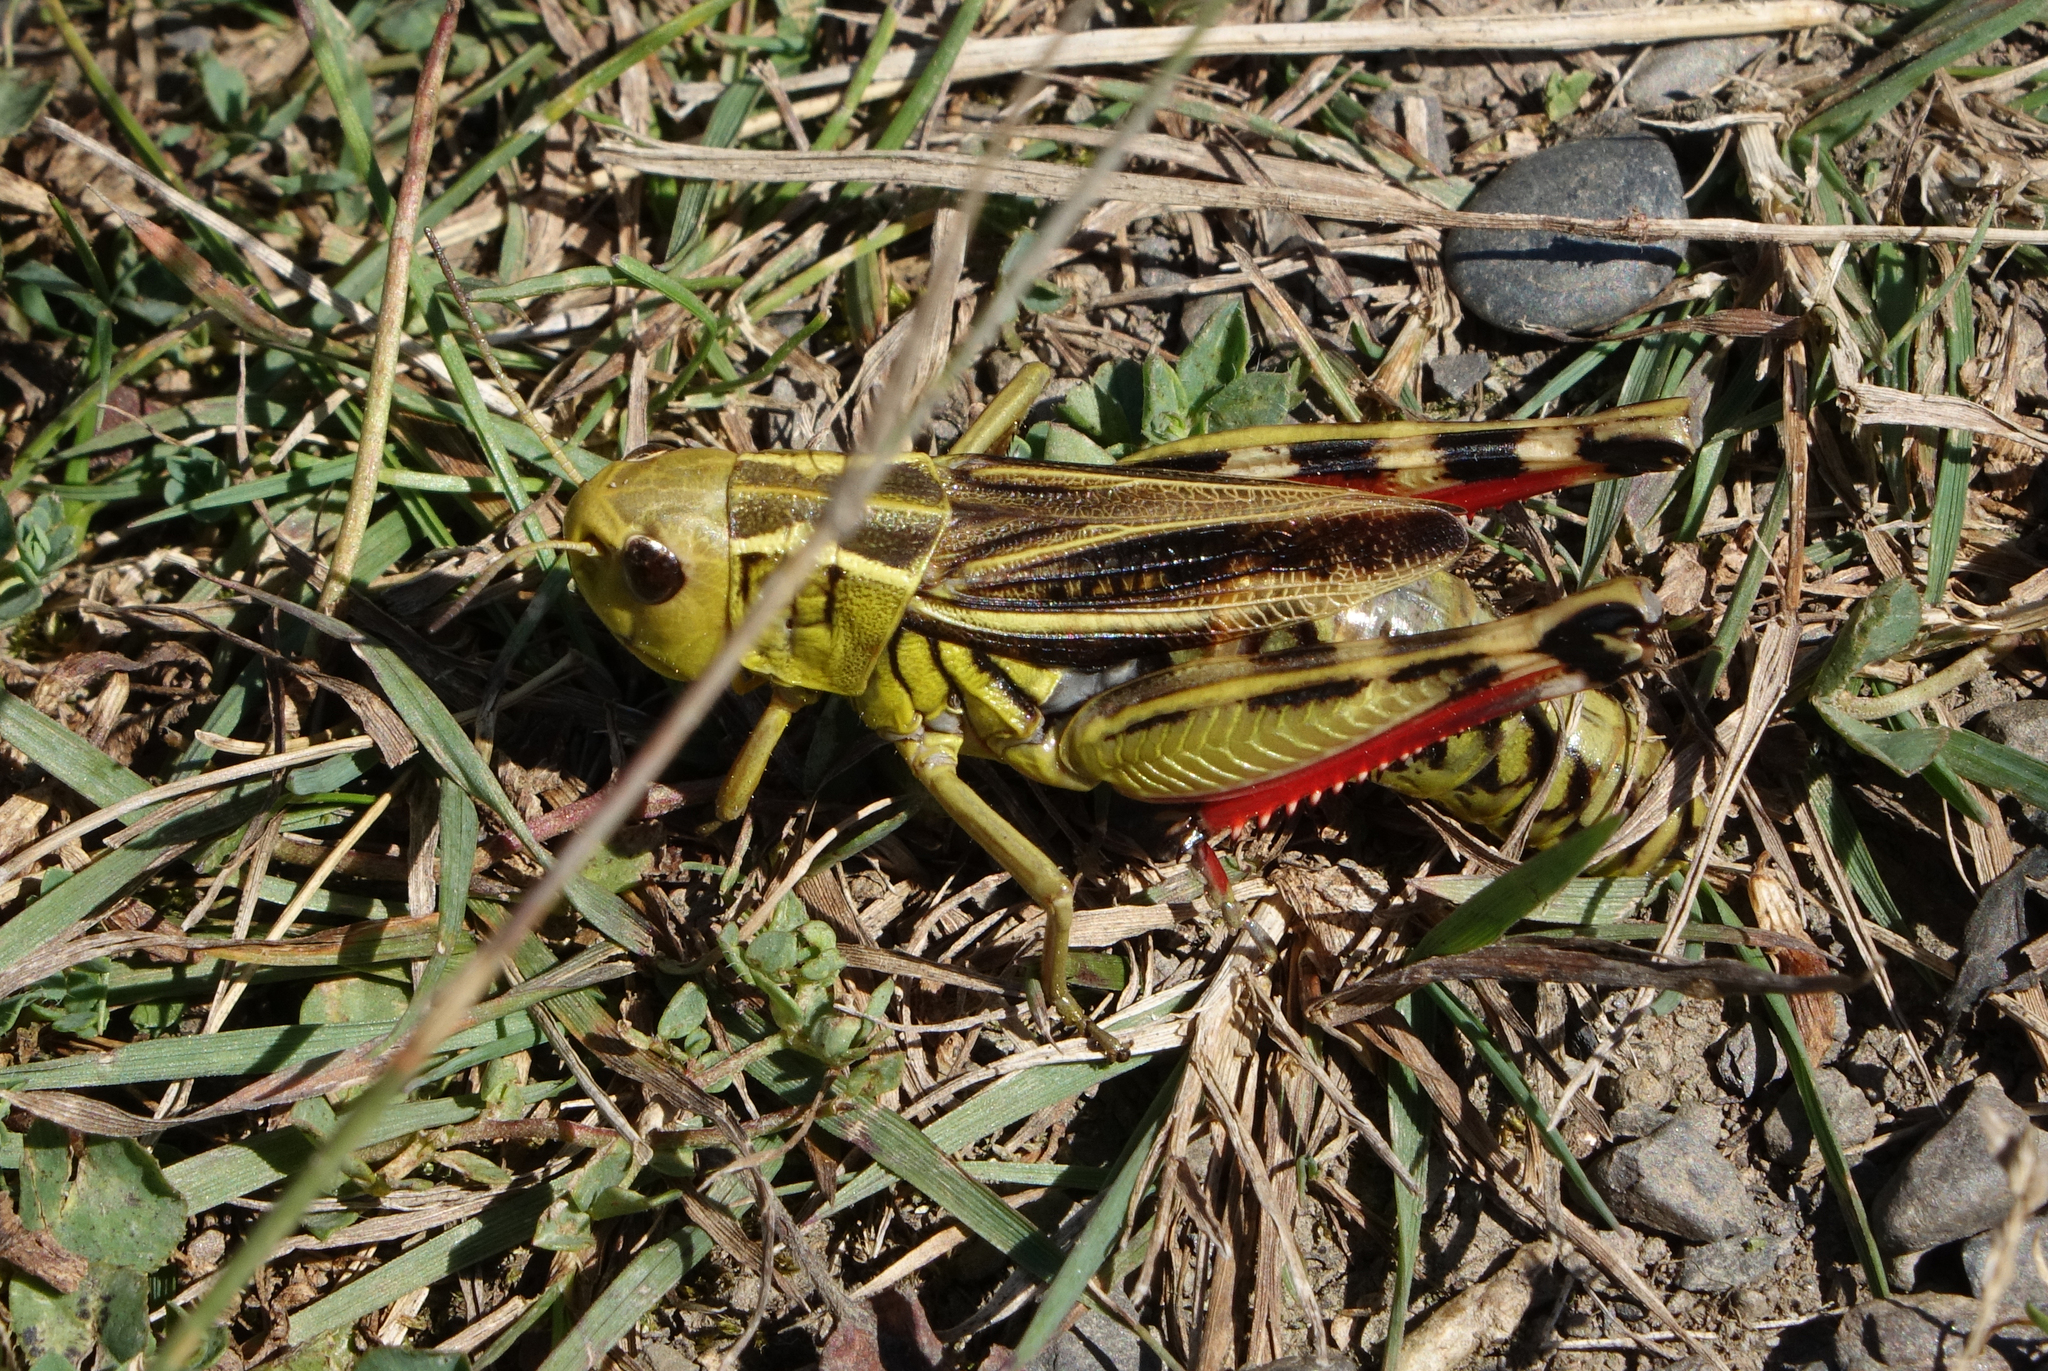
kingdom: Animalia
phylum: Arthropoda
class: Insecta
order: Orthoptera
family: Acrididae
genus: Arcyptera
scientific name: Arcyptera fusca
